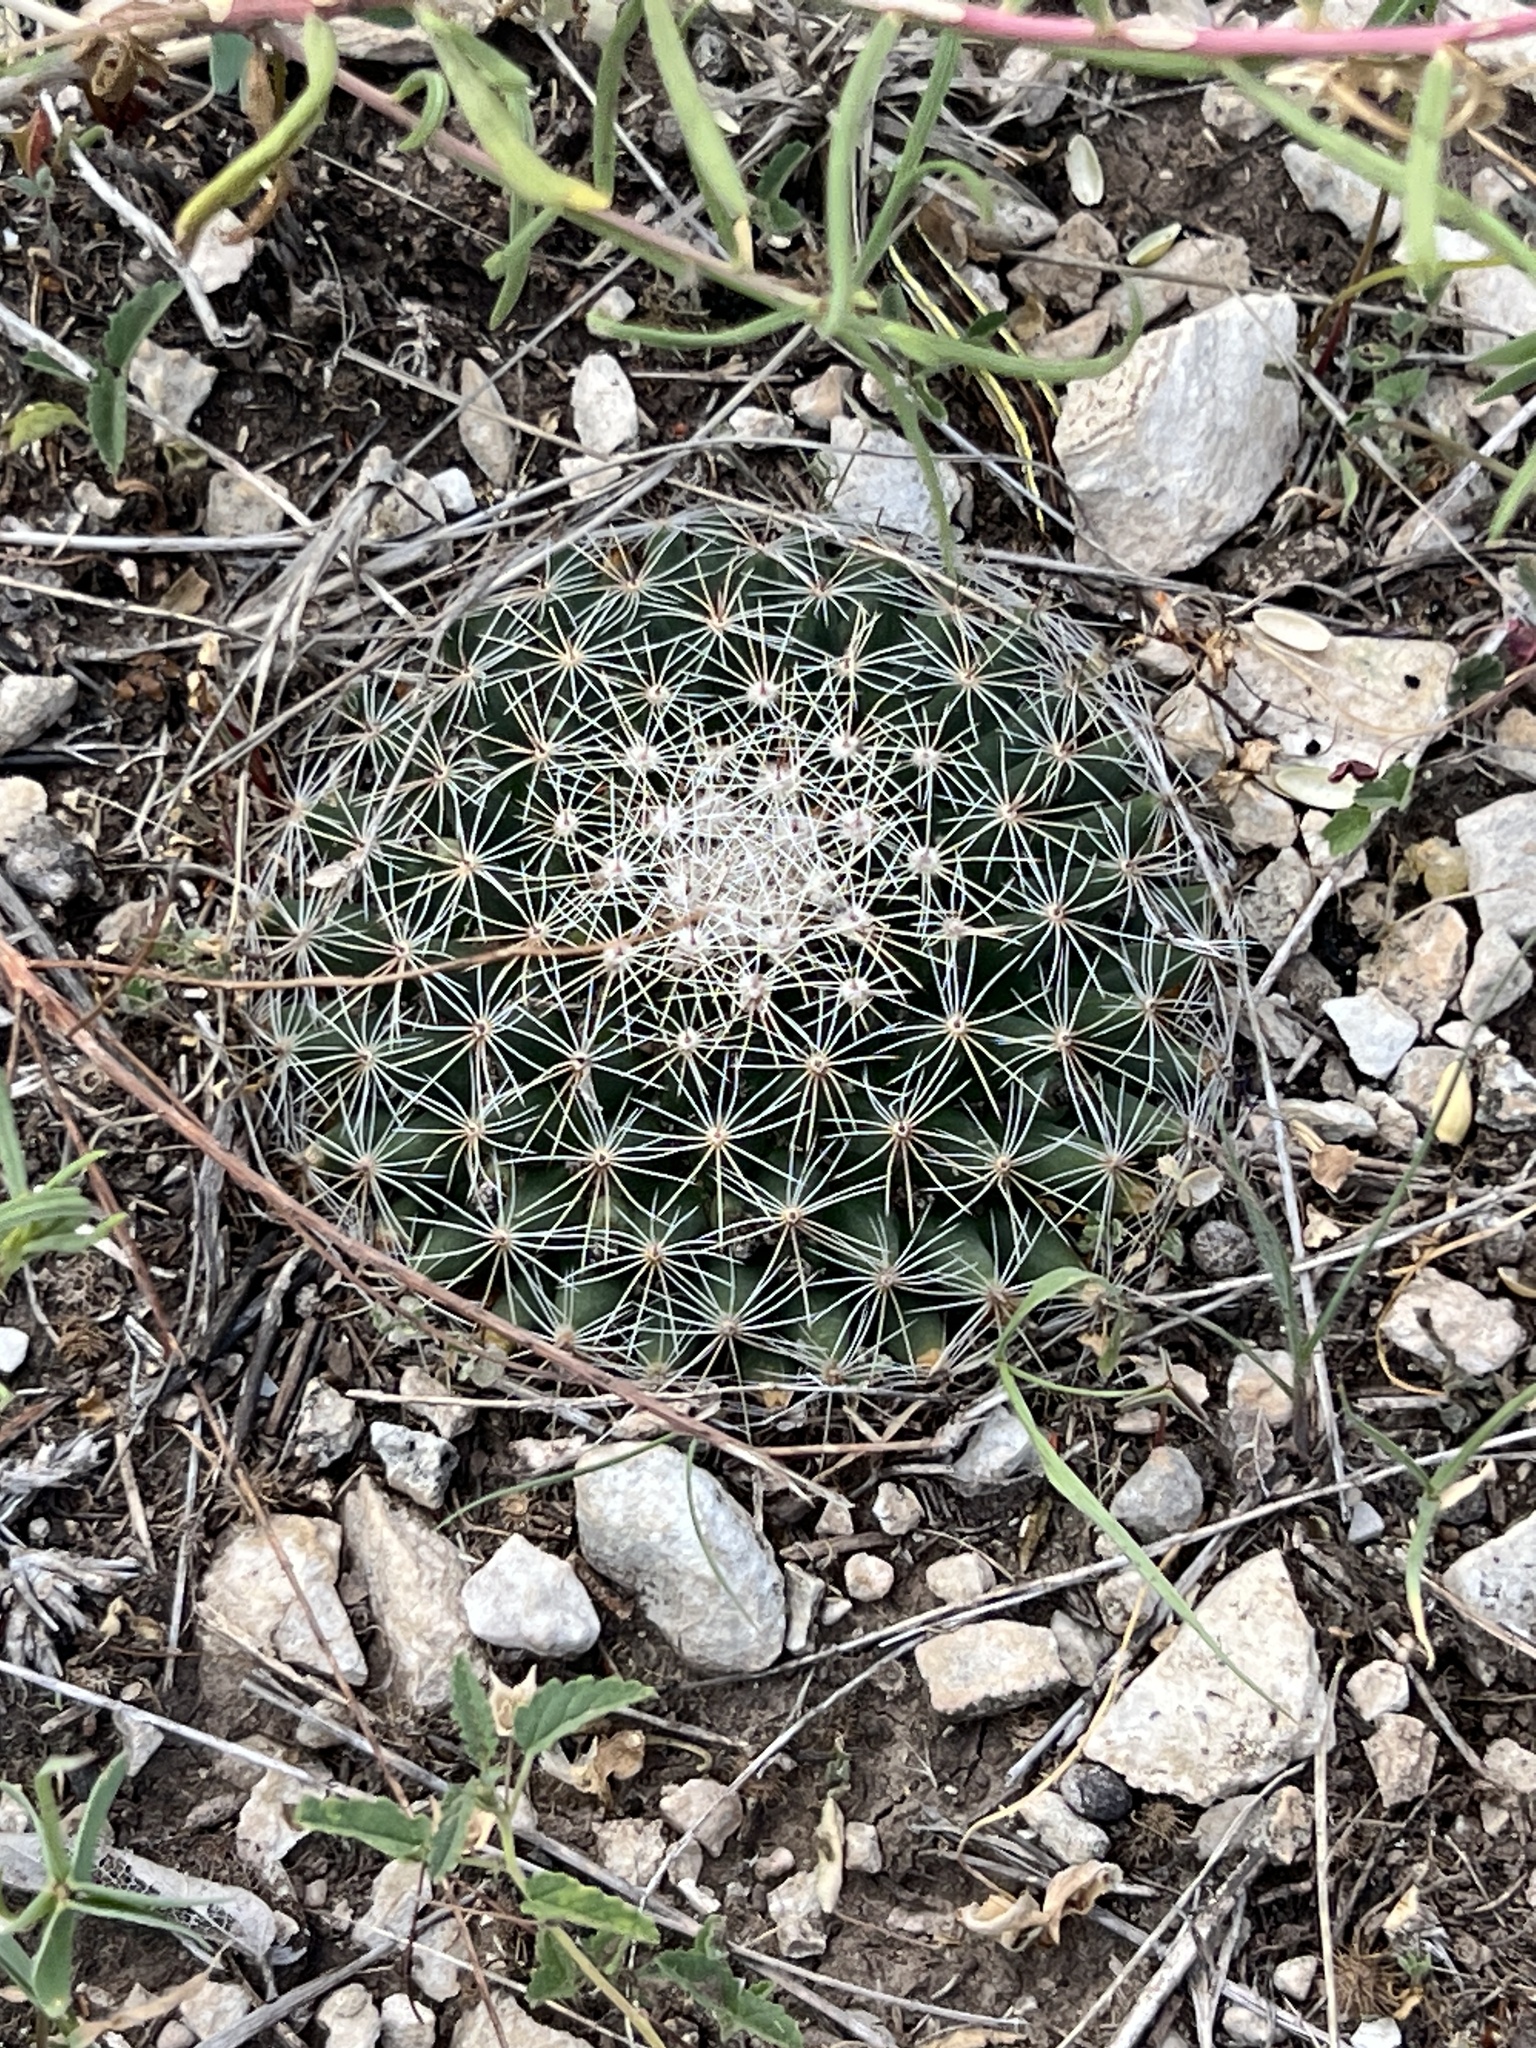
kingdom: Plantae
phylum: Tracheophyta
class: Magnoliopsida
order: Caryophyllales
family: Cactaceae
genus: Mammillaria
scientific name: Mammillaria heyderi
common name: Little nipple cactus
